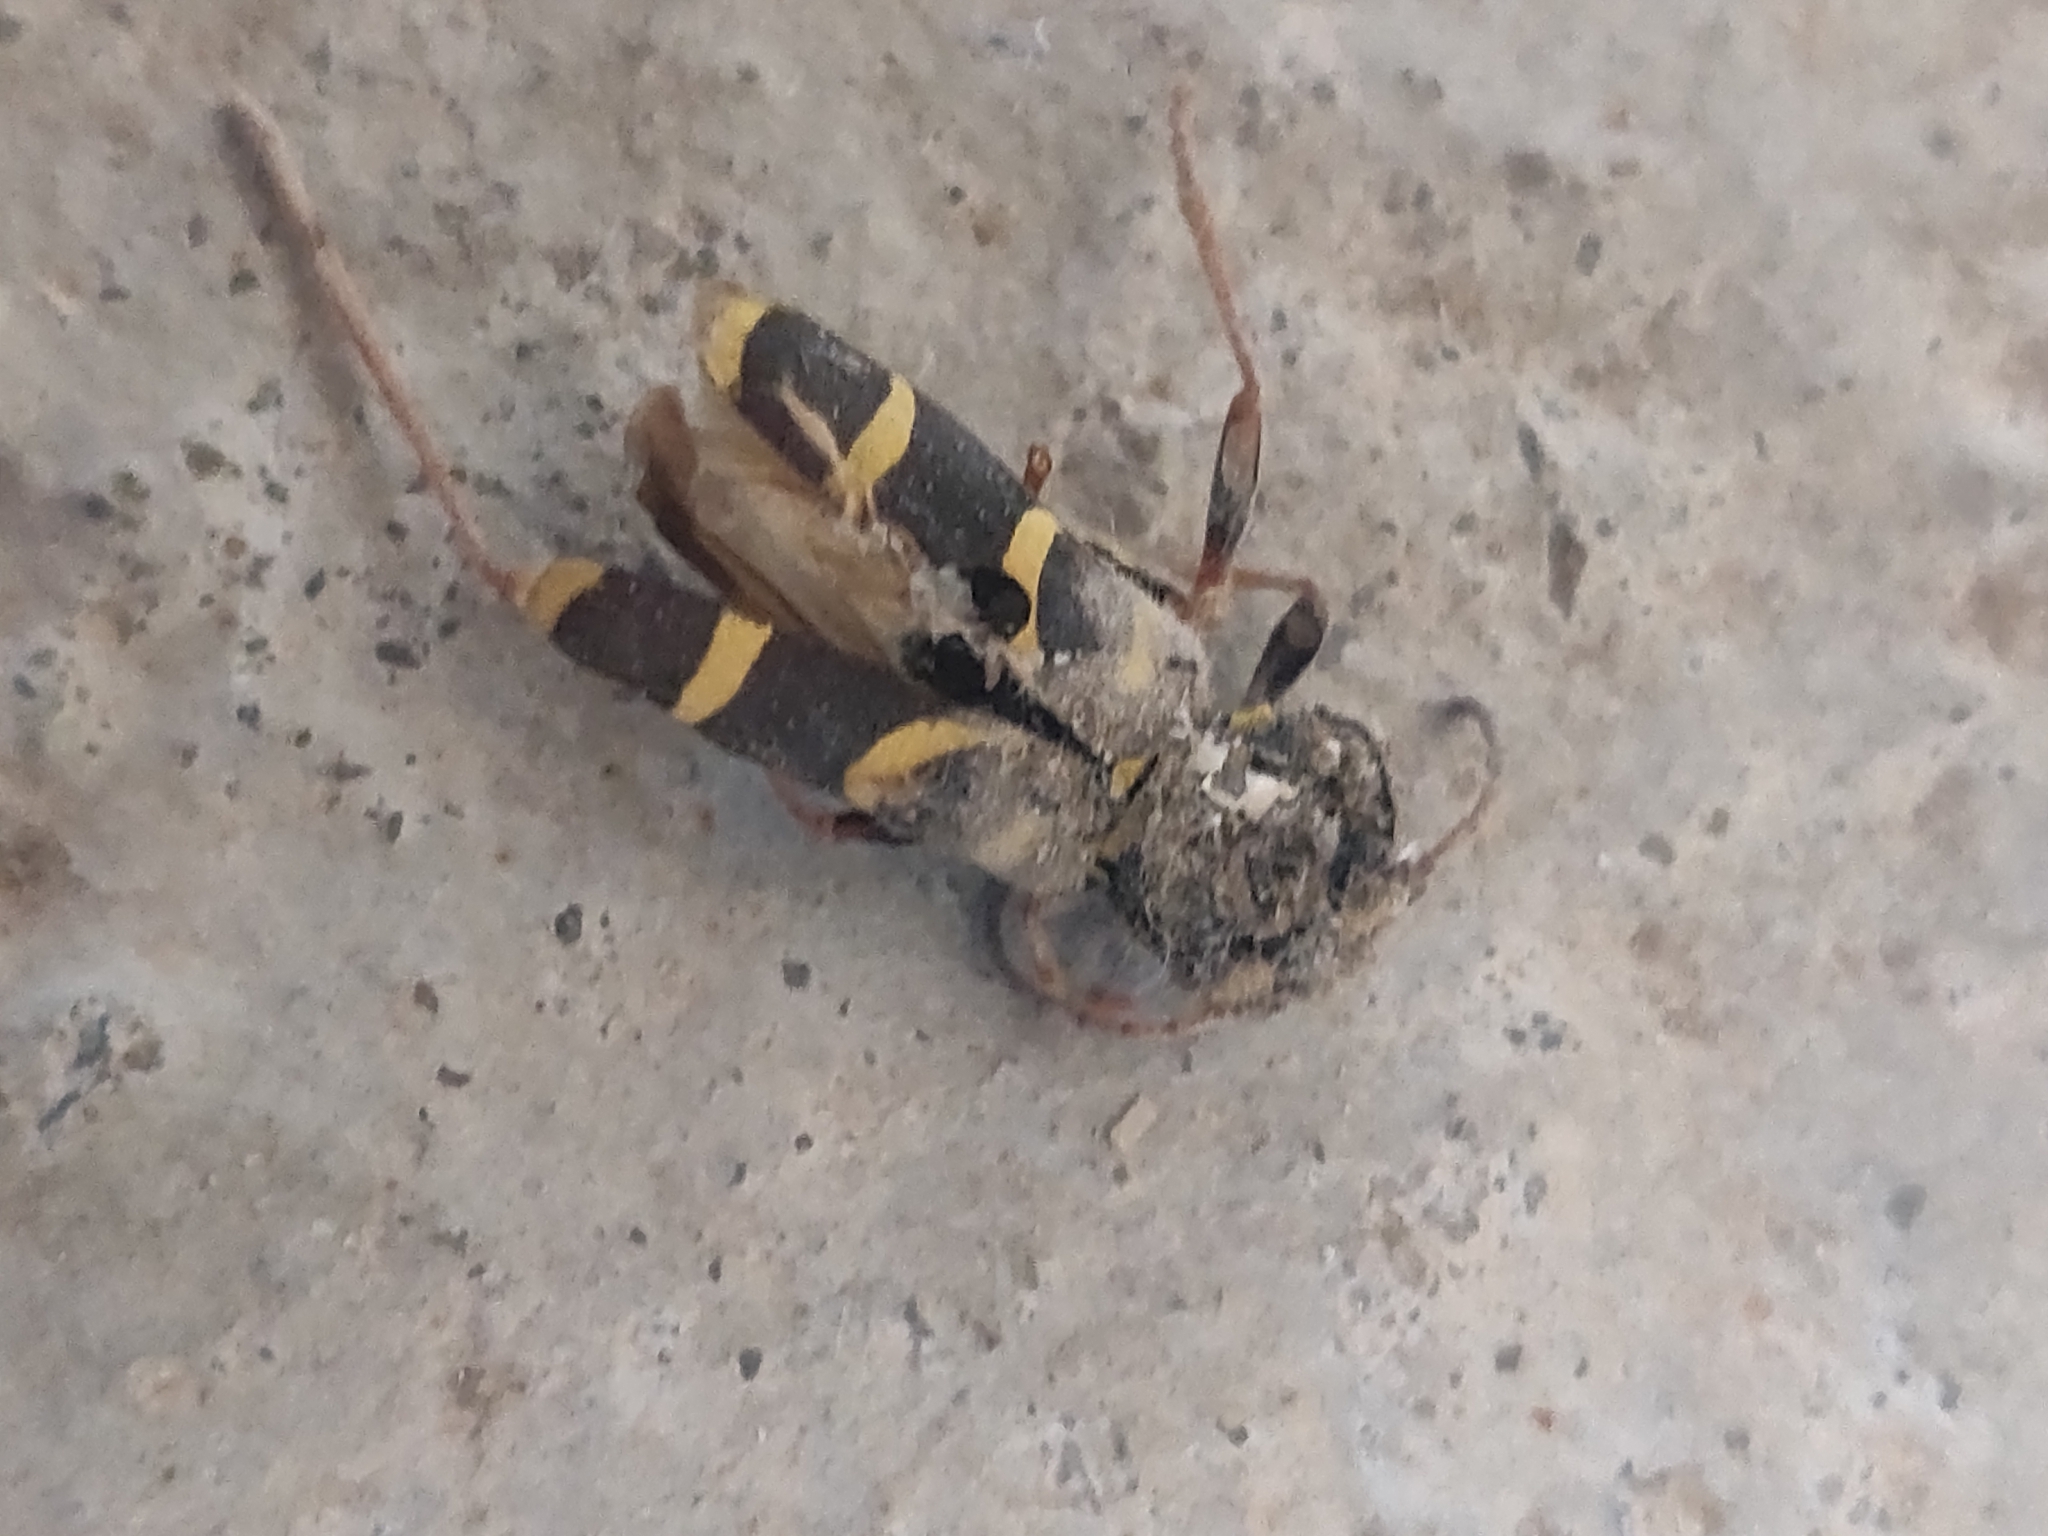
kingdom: Animalia
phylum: Arthropoda
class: Insecta
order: Coleoptera
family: Cerambycidae
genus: Clytus
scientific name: Clytus arietis
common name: Wasp beetle
